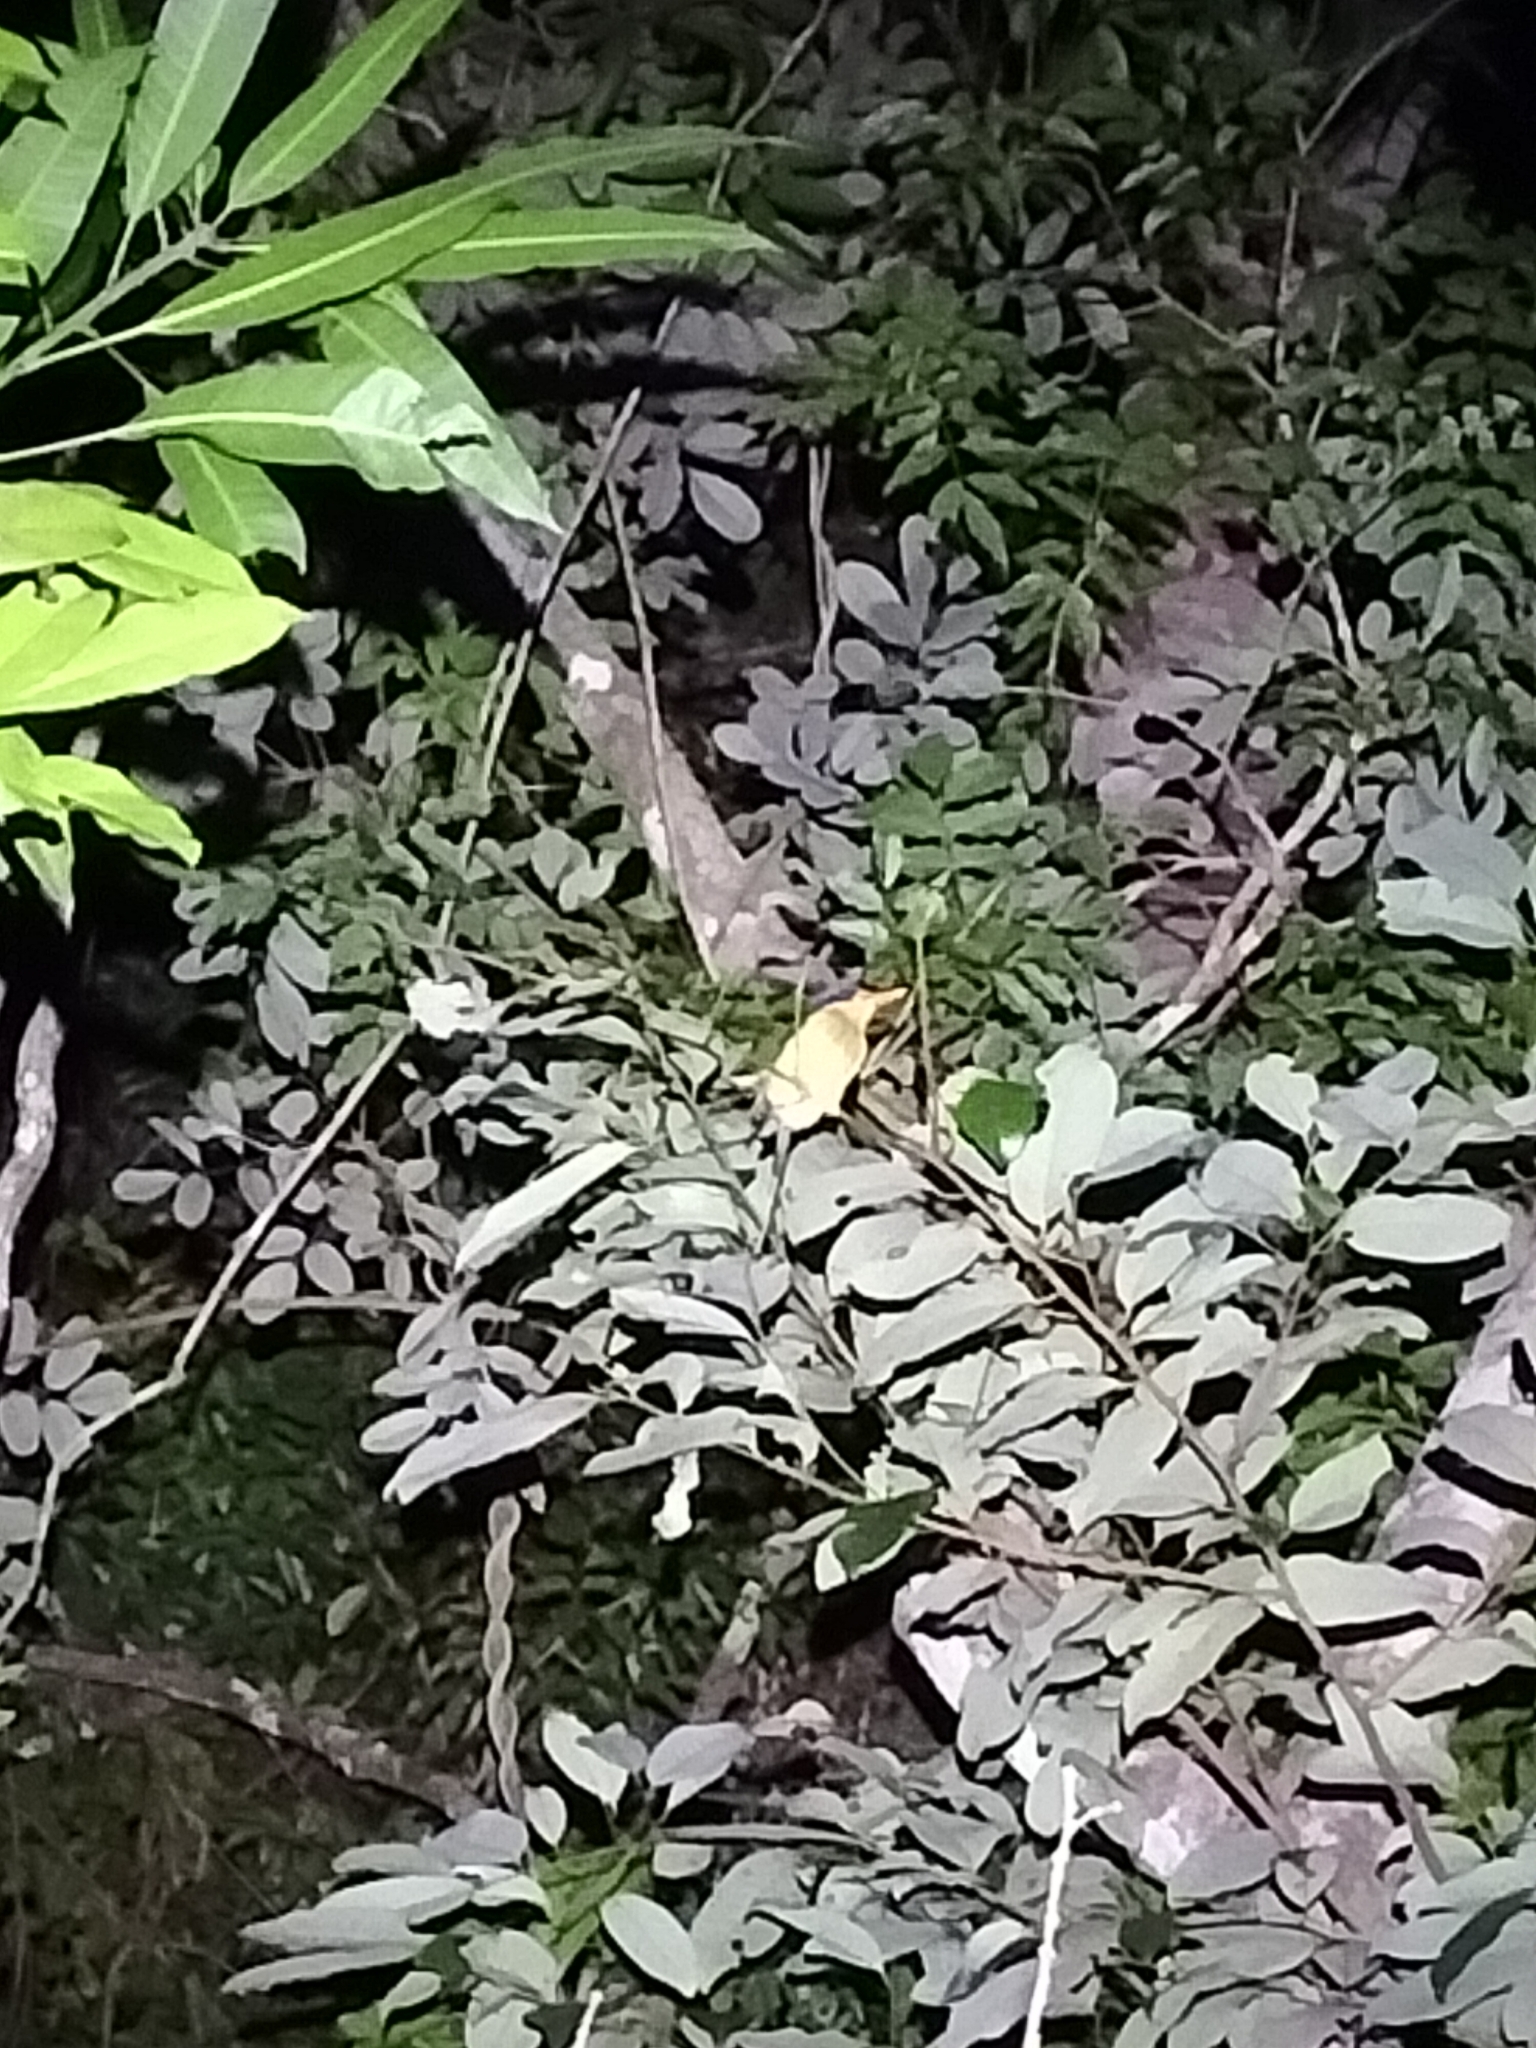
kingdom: Animalia
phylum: Chordata
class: Aves
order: Coraciiformes
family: Alcedinidae
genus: Tanysiptera
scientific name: Tanysiptera sylvia
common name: Buff-breasted paradise kingfisher
